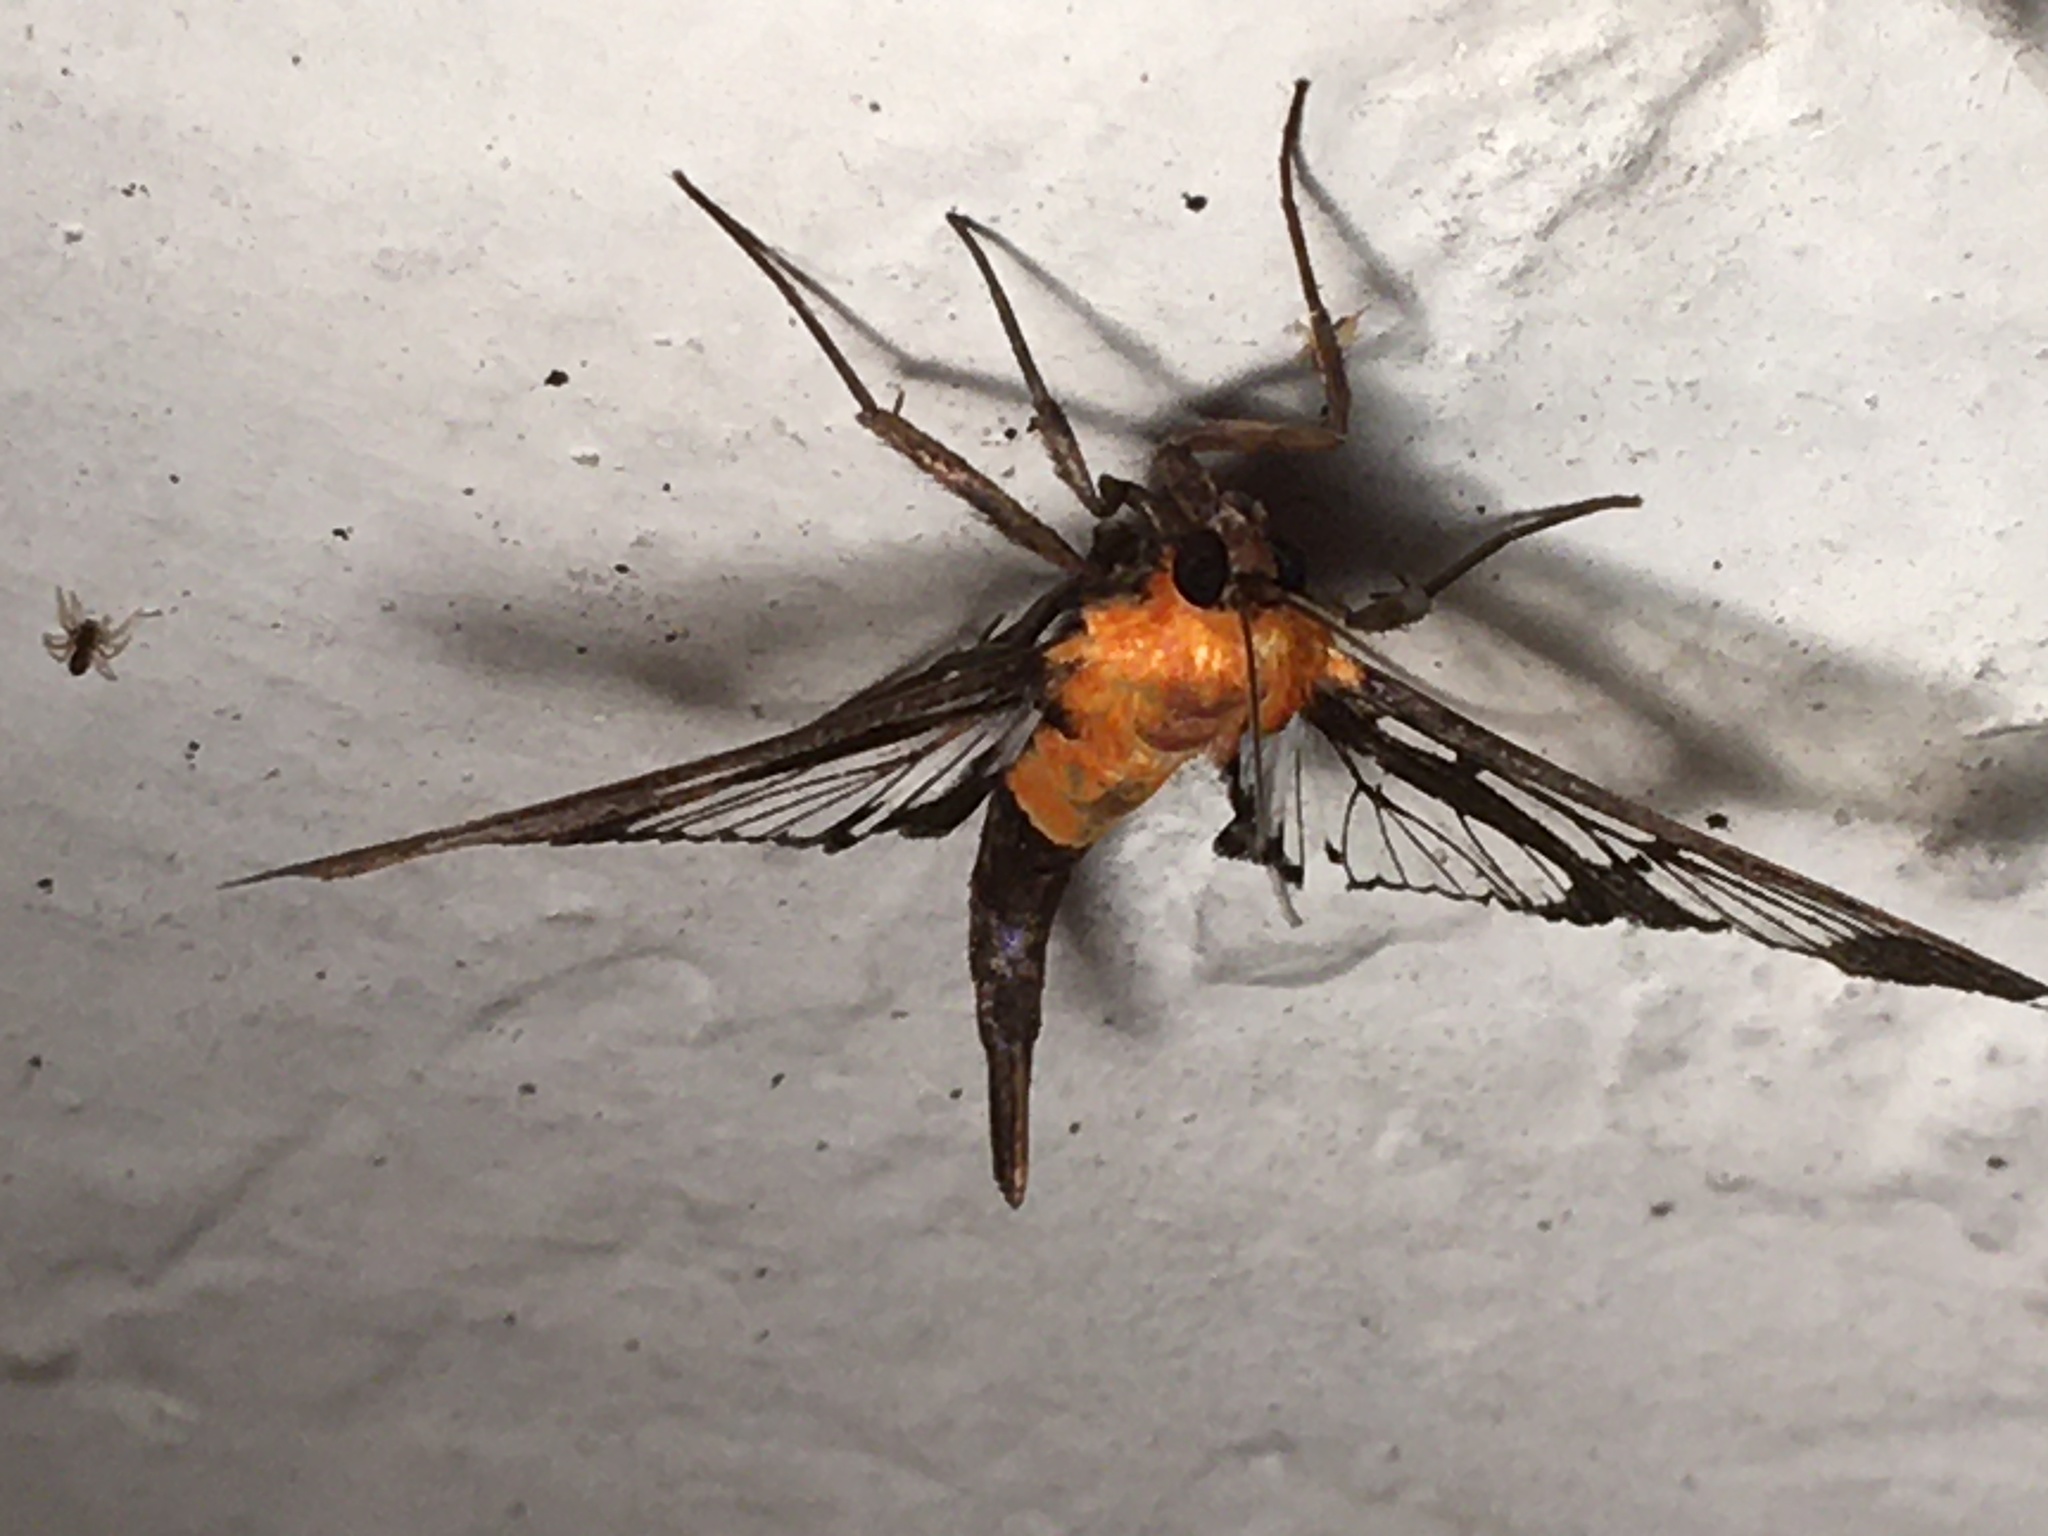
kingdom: Animalia
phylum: Arthropoda
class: Insecta
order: Lepidoptera
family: Crambidae
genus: Trichaea
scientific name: Trichaea pilicornis
